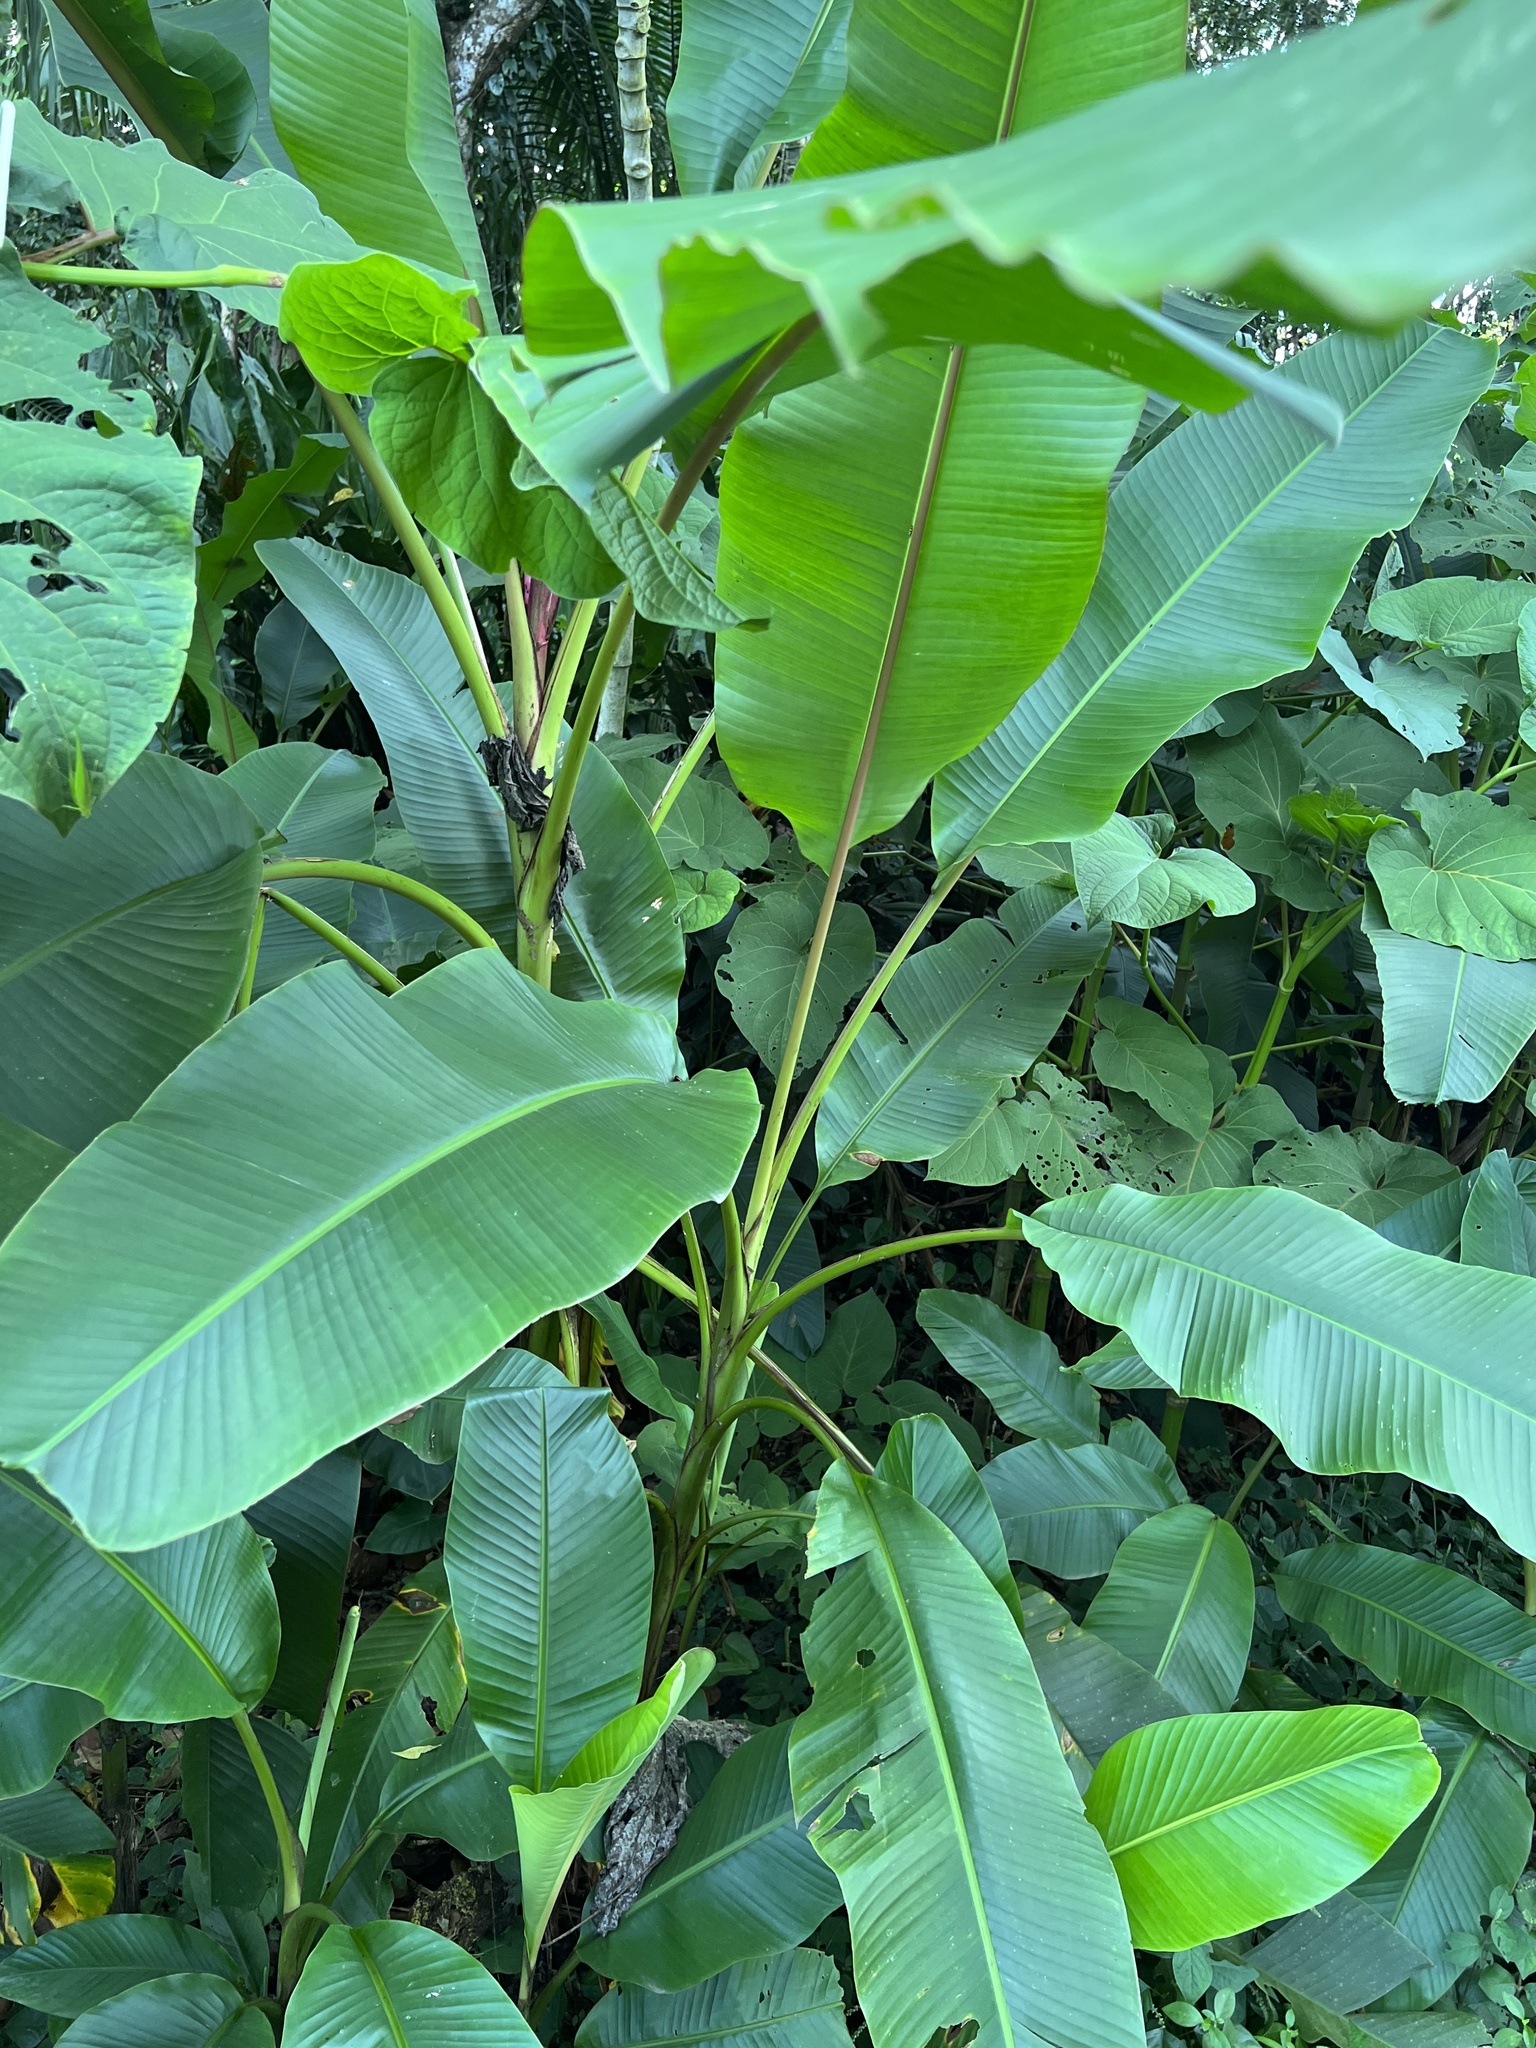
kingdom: Plantae
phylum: Tracheophyta
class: Liliopsida
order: Zingiberales
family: Musaceae
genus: Musa
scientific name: Musa velutina
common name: Pink velvet banana
